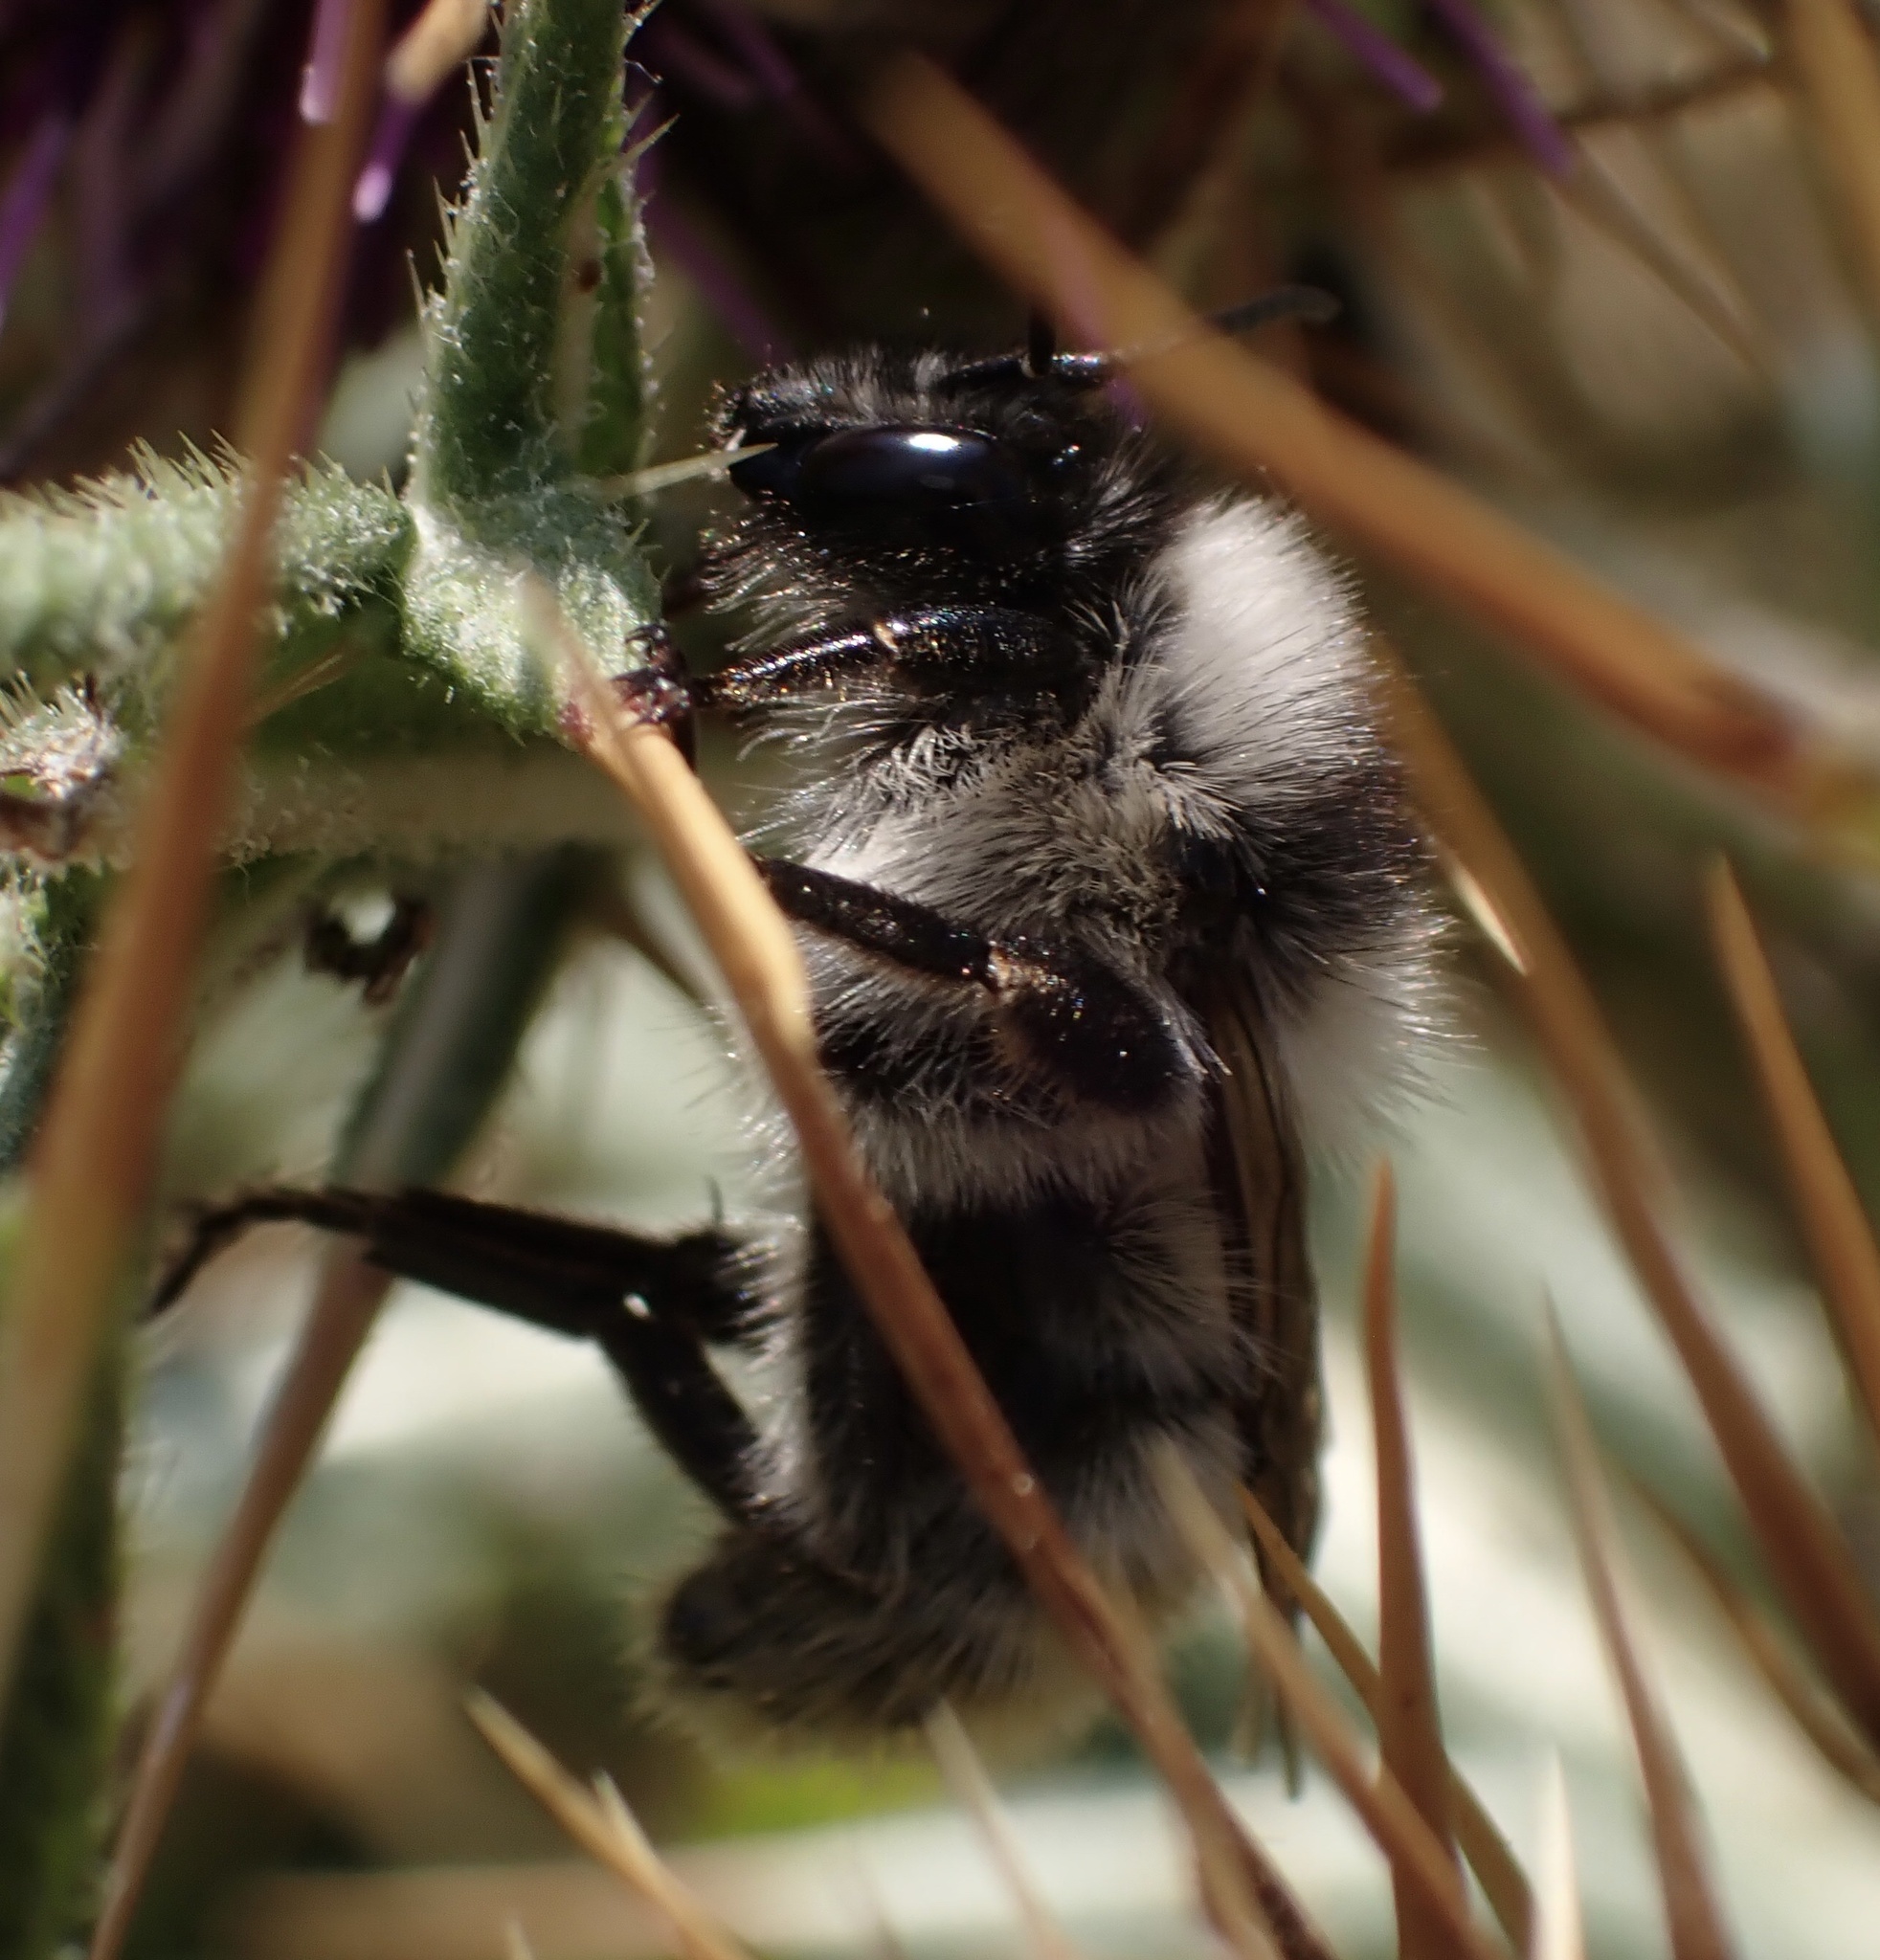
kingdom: Animalia
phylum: Arthropoda
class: Insecta
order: Hymenoptera
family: Apidae
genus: Bombus
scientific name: Bombus mesomelas
